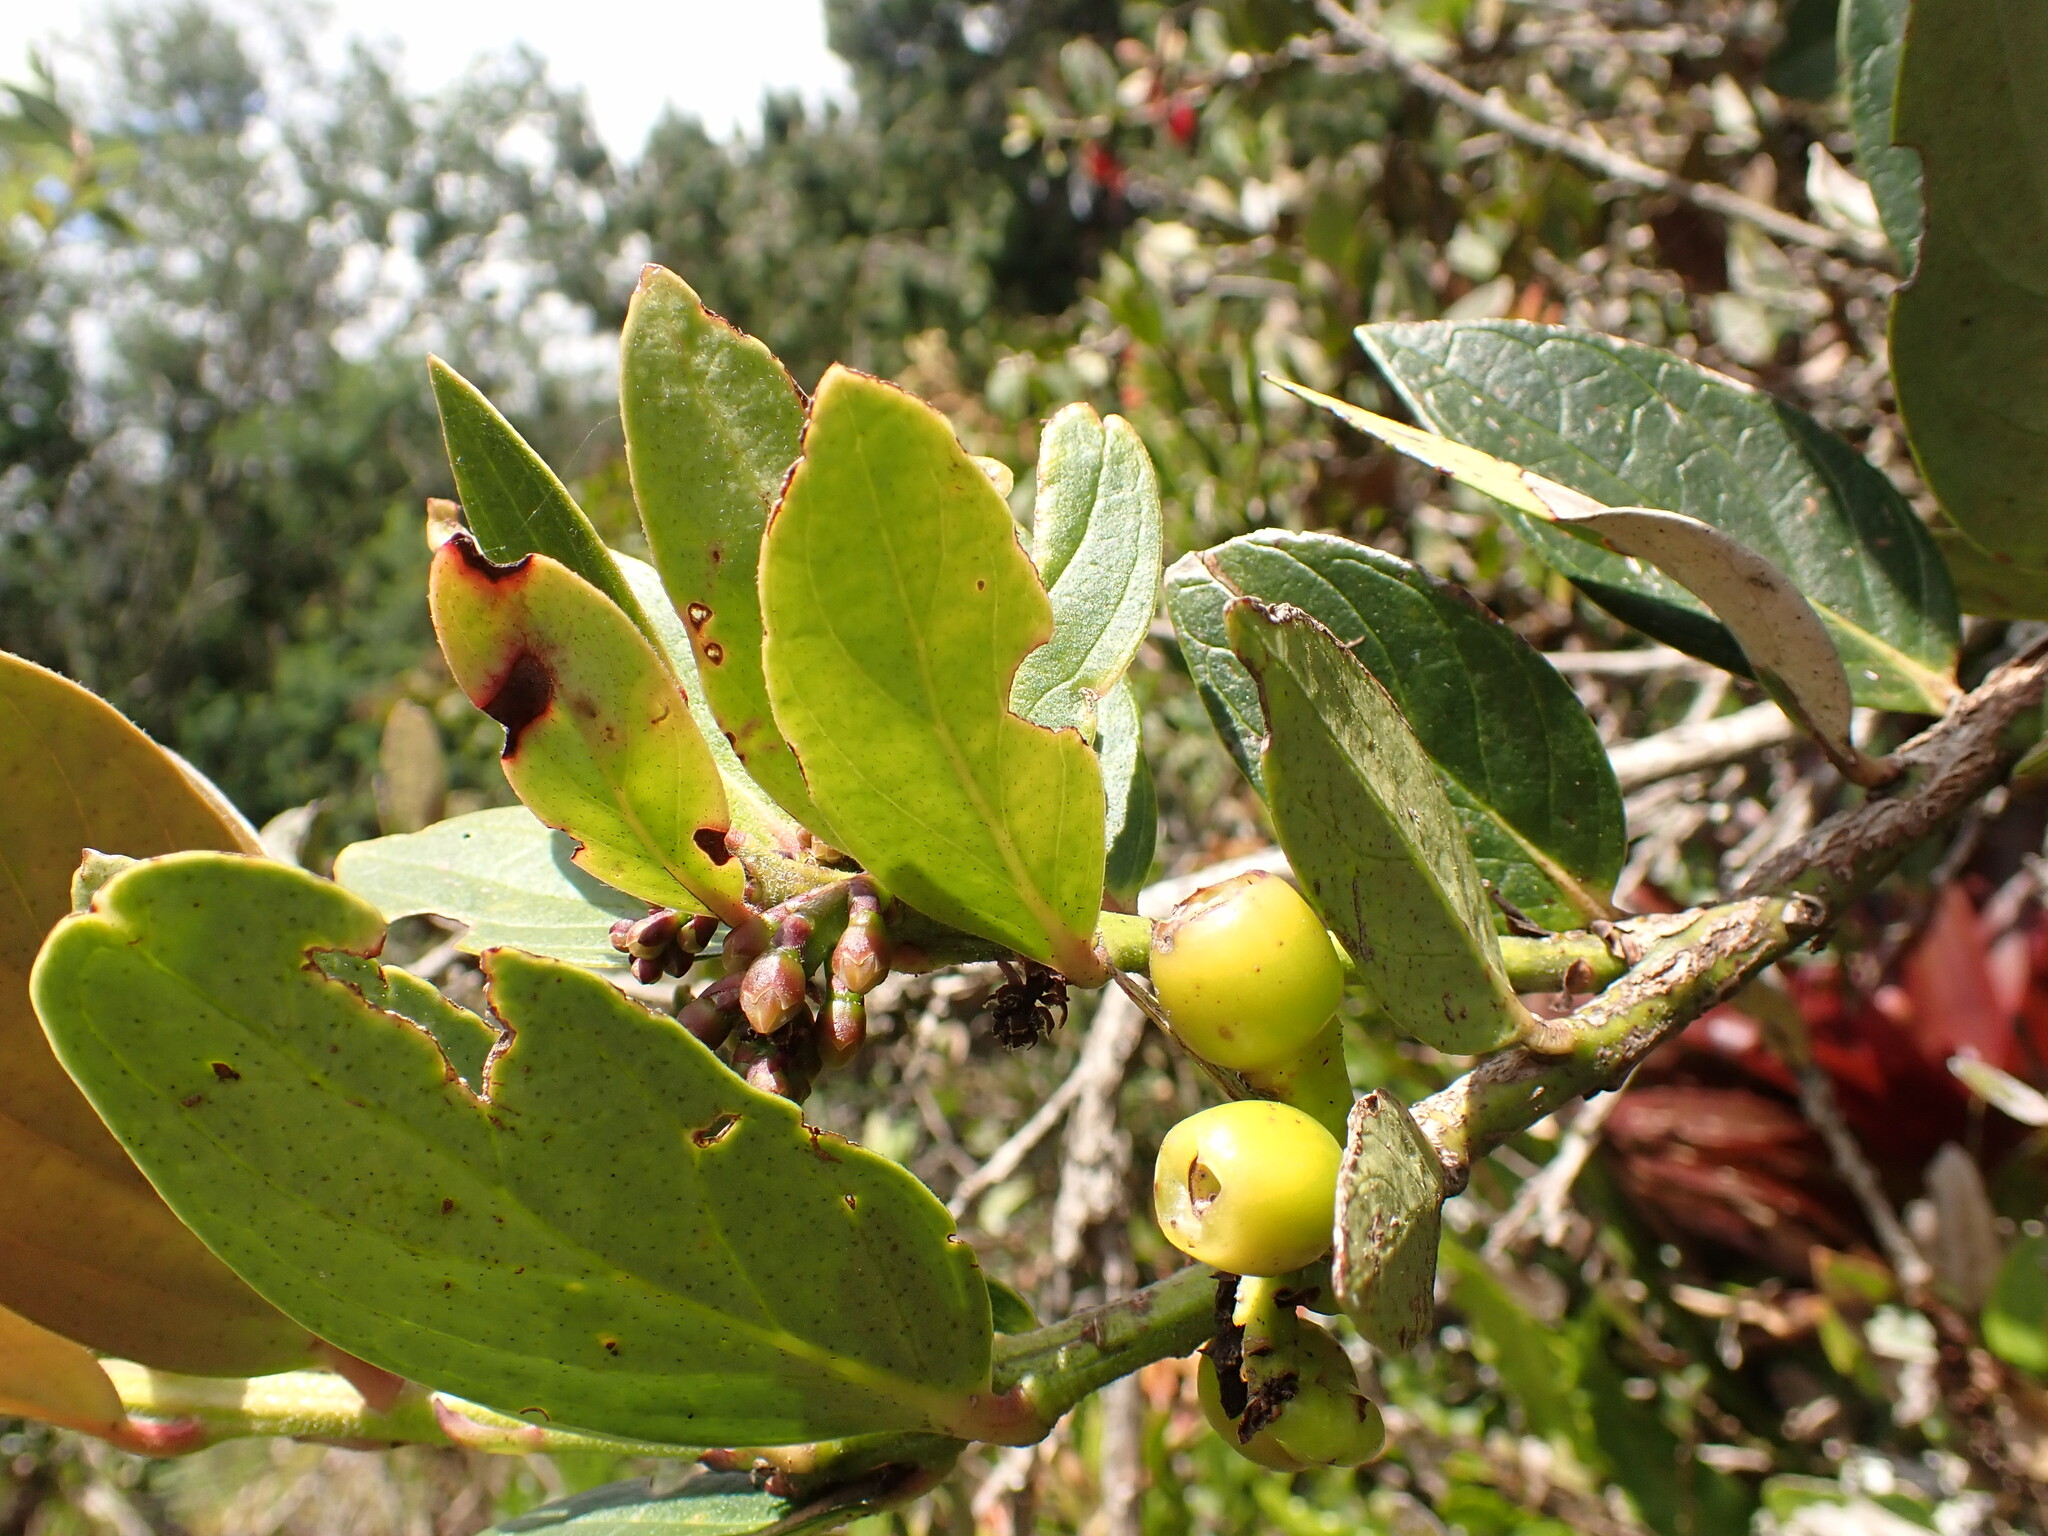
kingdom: Plantae
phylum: Tracheophyta
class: Magnoliopsida
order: Ericales
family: Ericaceae
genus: Macleania
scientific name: Macleania rupestris
